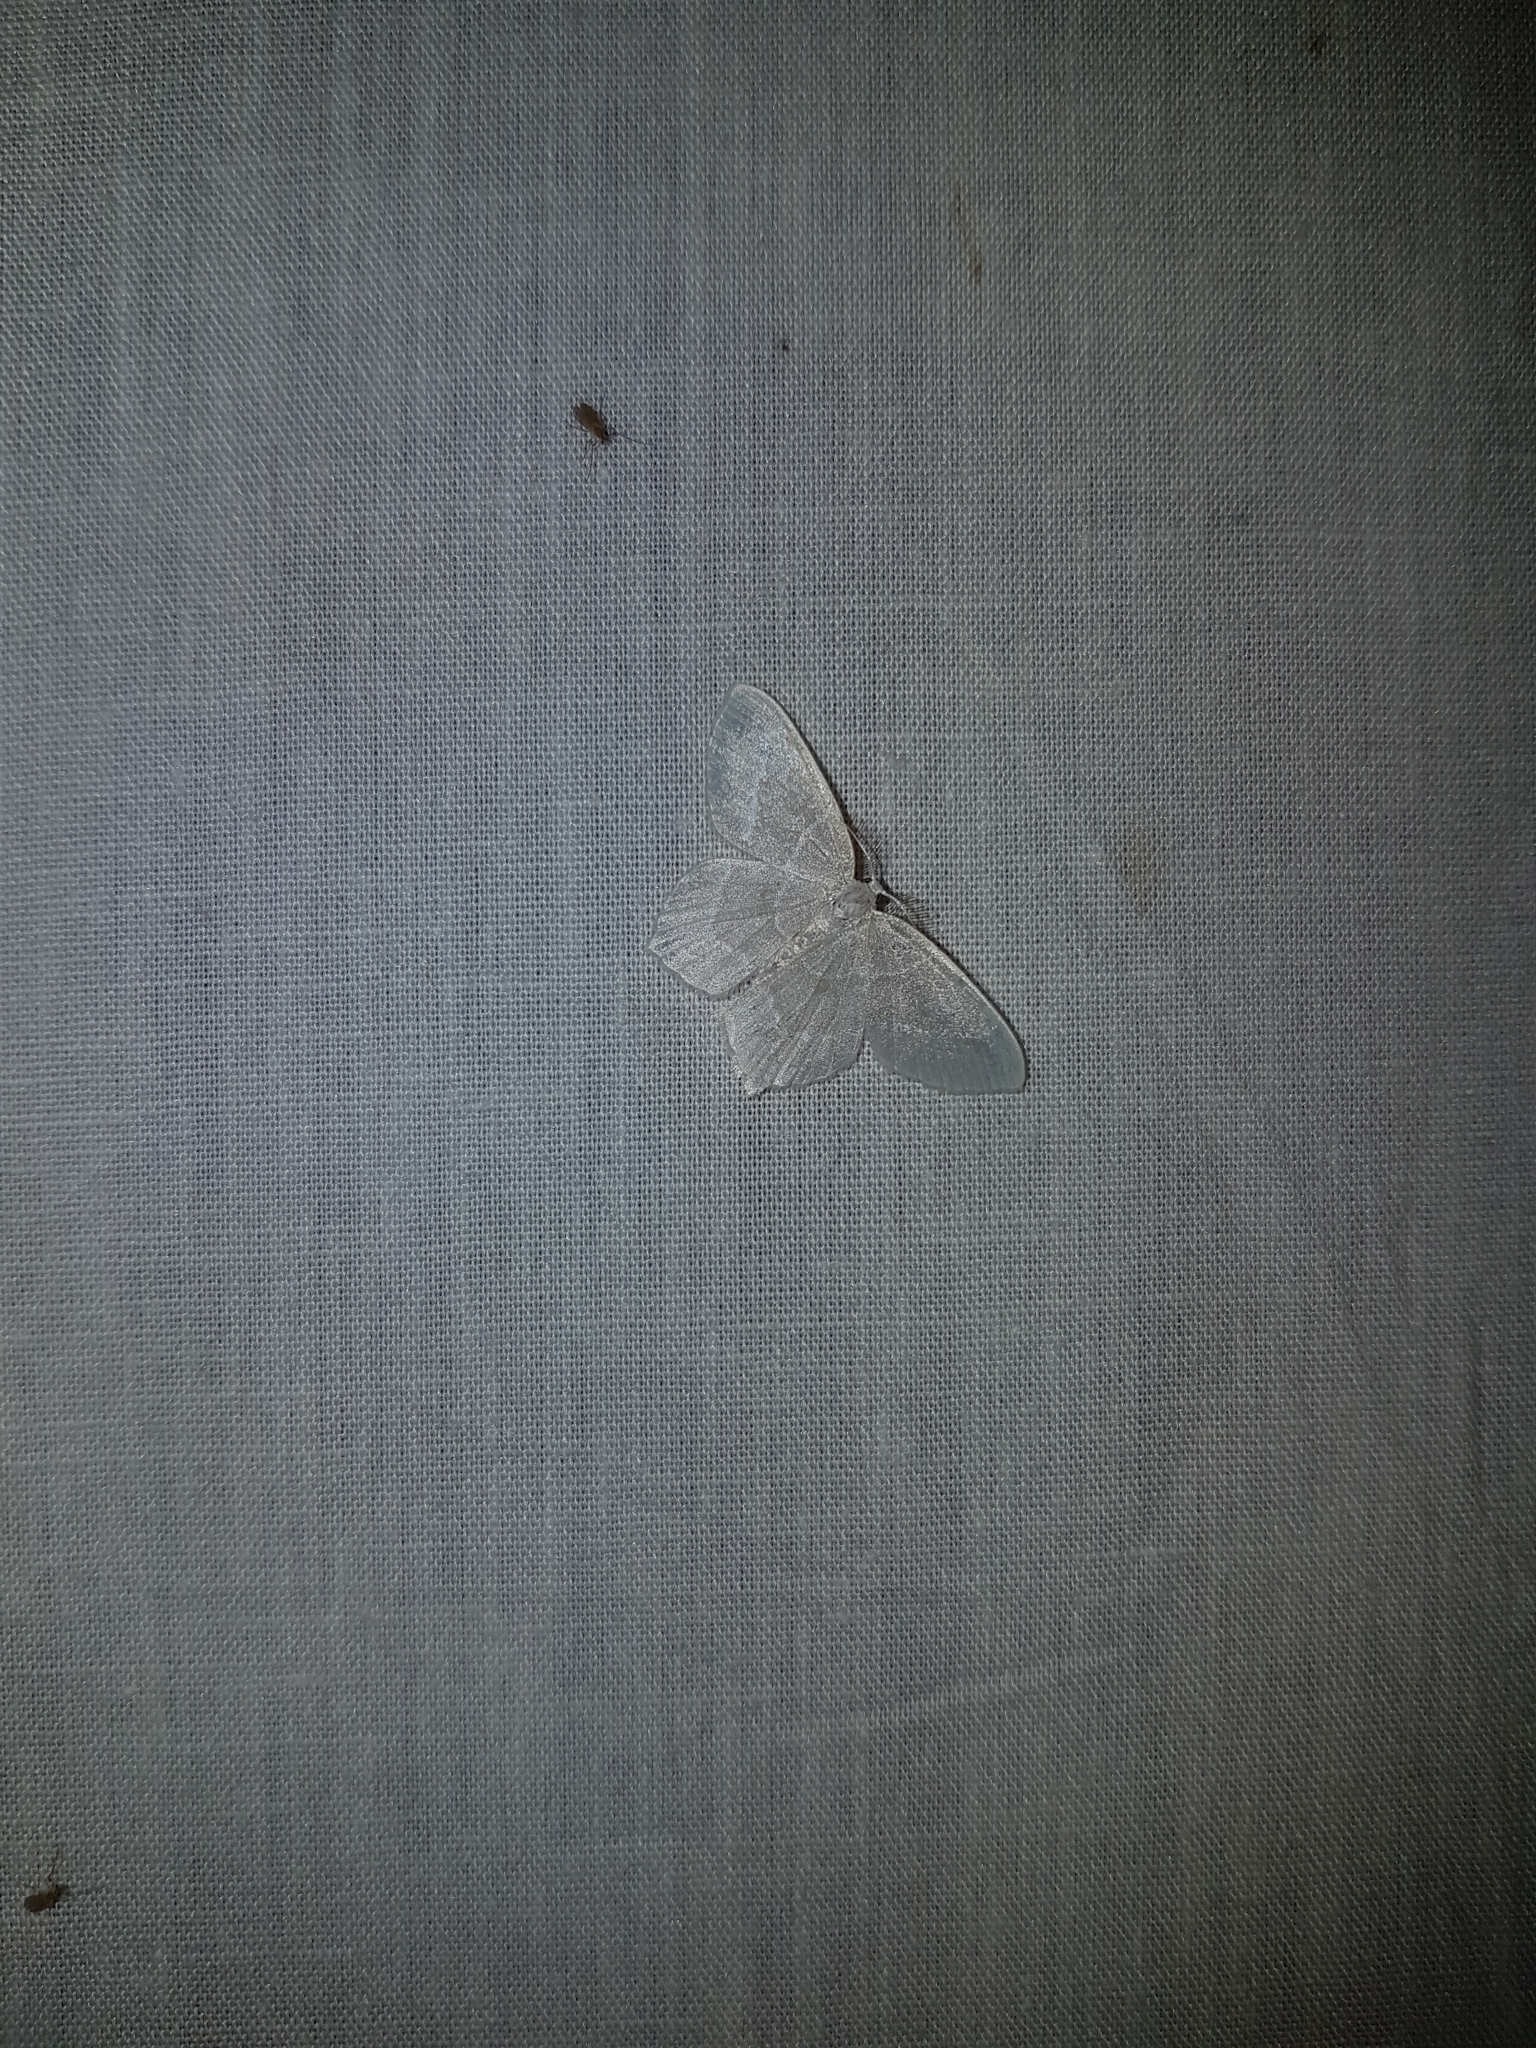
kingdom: Animalia
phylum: Arthropoda
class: Insecta
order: Lepidoptera
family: Geometridae
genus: Jodis
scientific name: Jodis lactearia
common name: Little emerald
